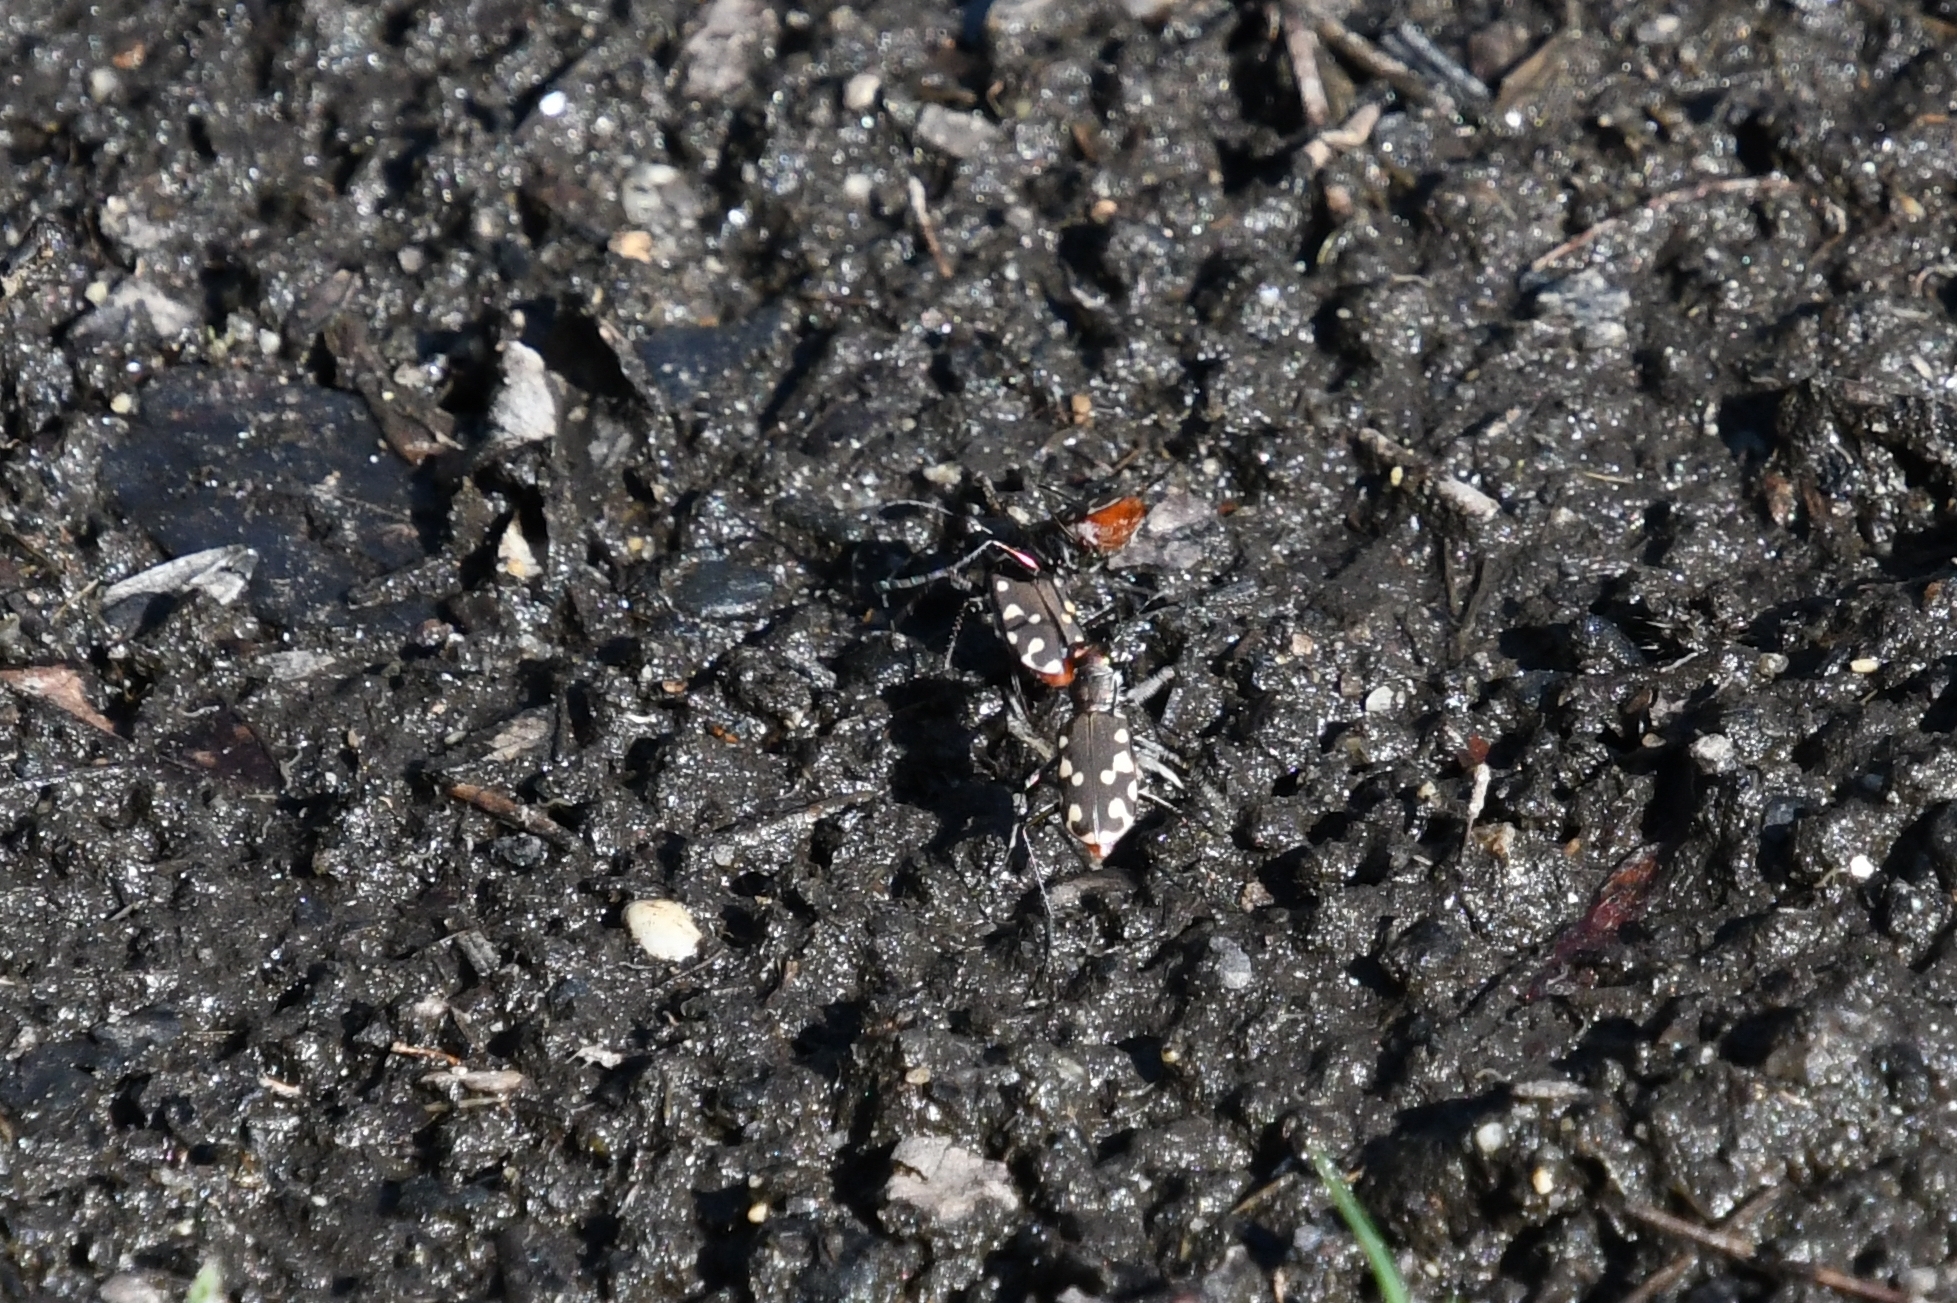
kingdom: Animalia
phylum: Arthropoda
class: Insecta
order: Coleoptera
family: Carabidae
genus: Cicindela
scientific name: Cicindela sedecimpunctata
